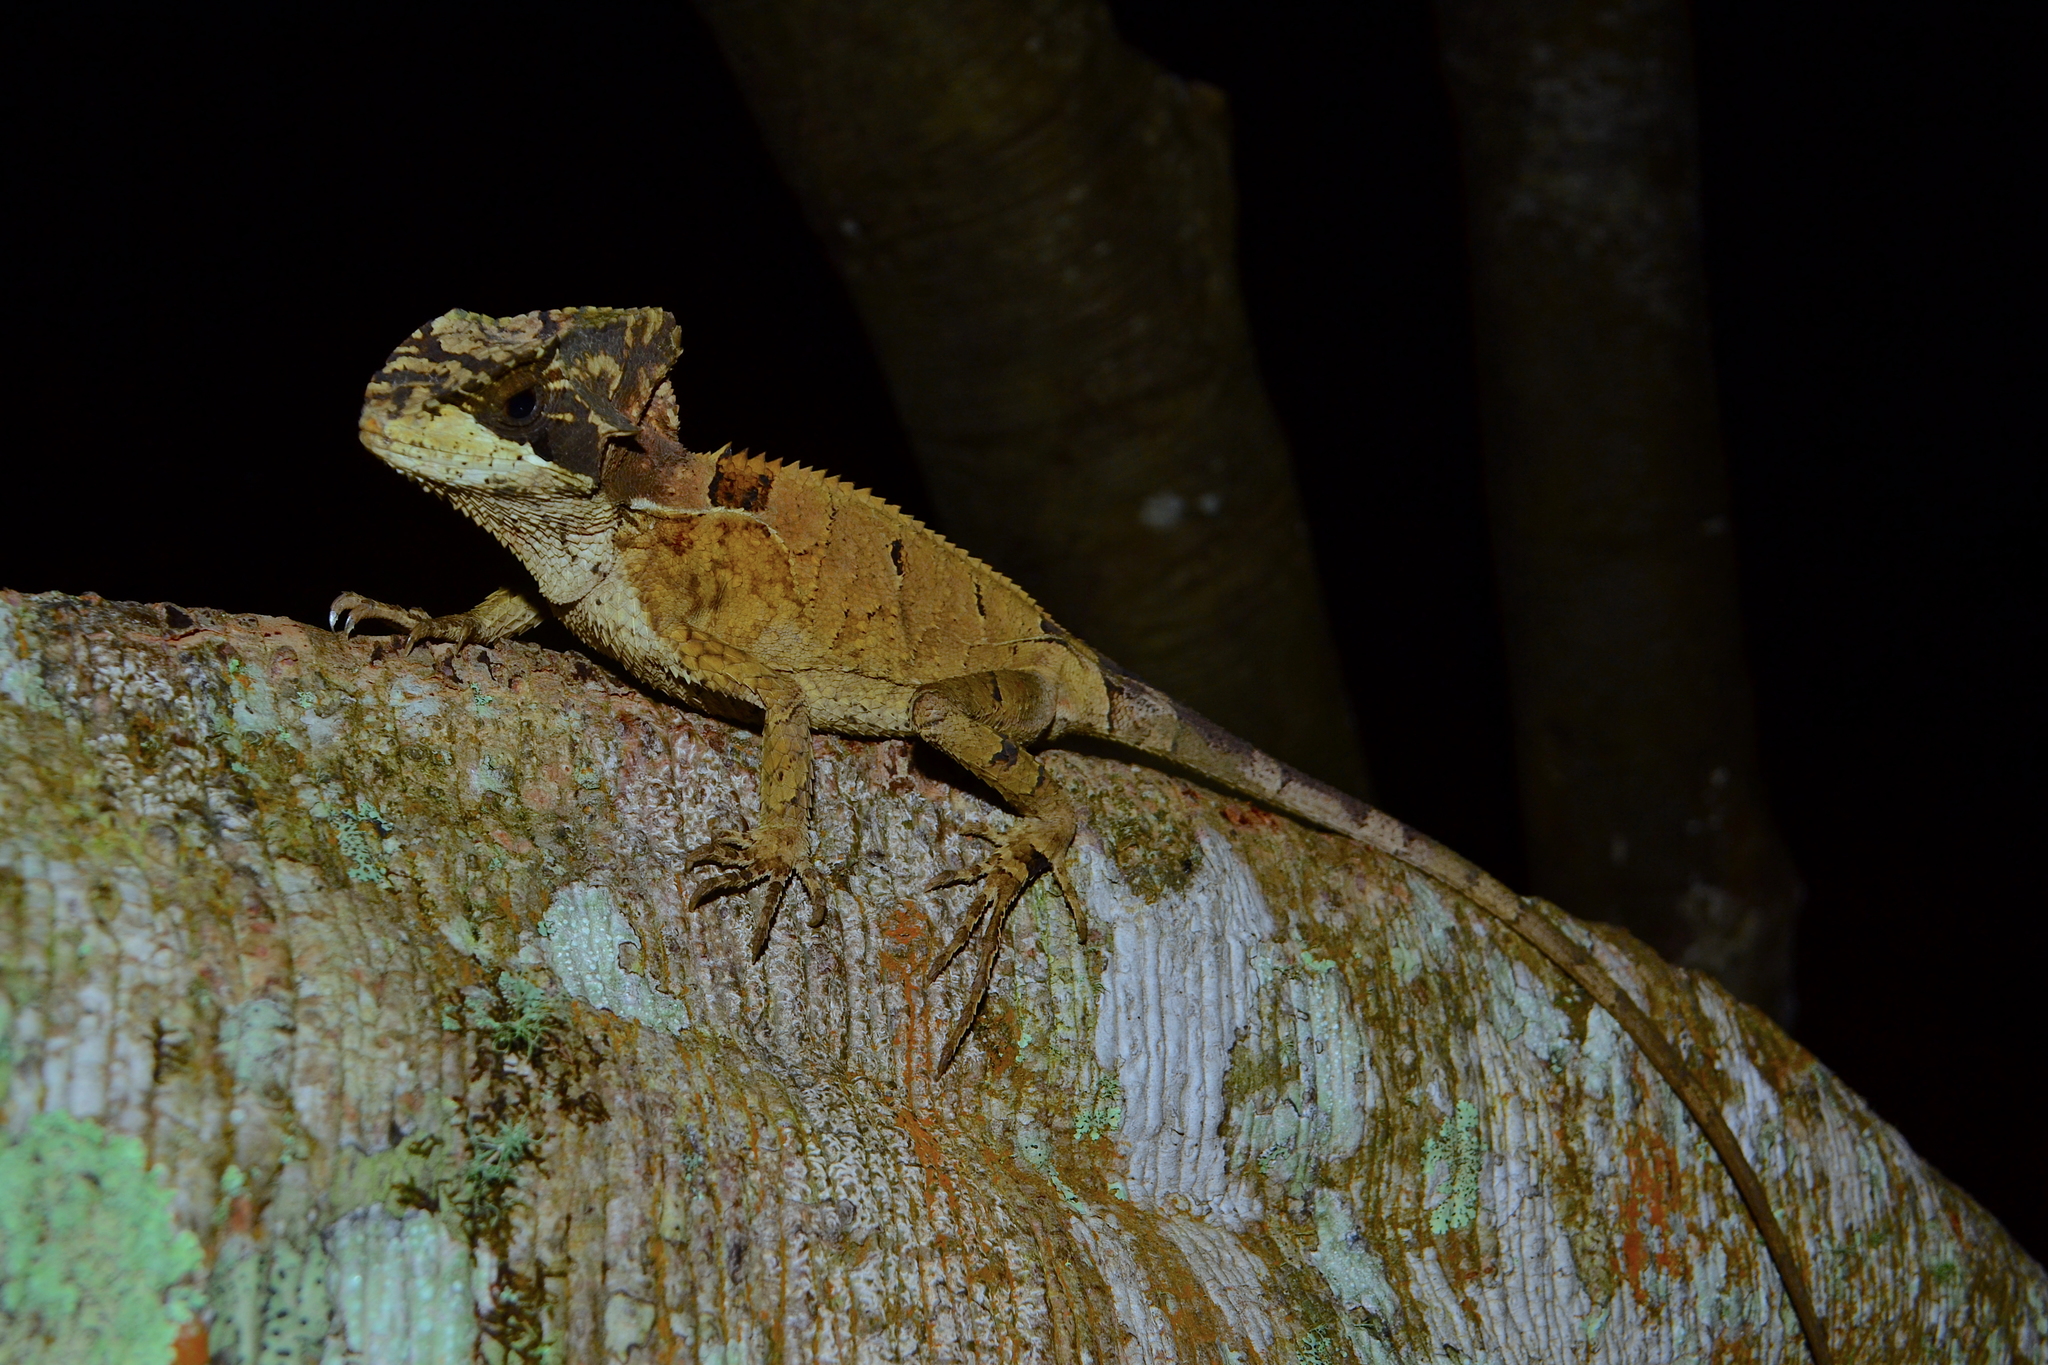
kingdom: Animalia
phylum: Chordata
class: Squamata
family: Corytophanidae
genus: Corytophanes
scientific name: Corytophanes hernandesii
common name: Hernandez’s helmeted basilisk
